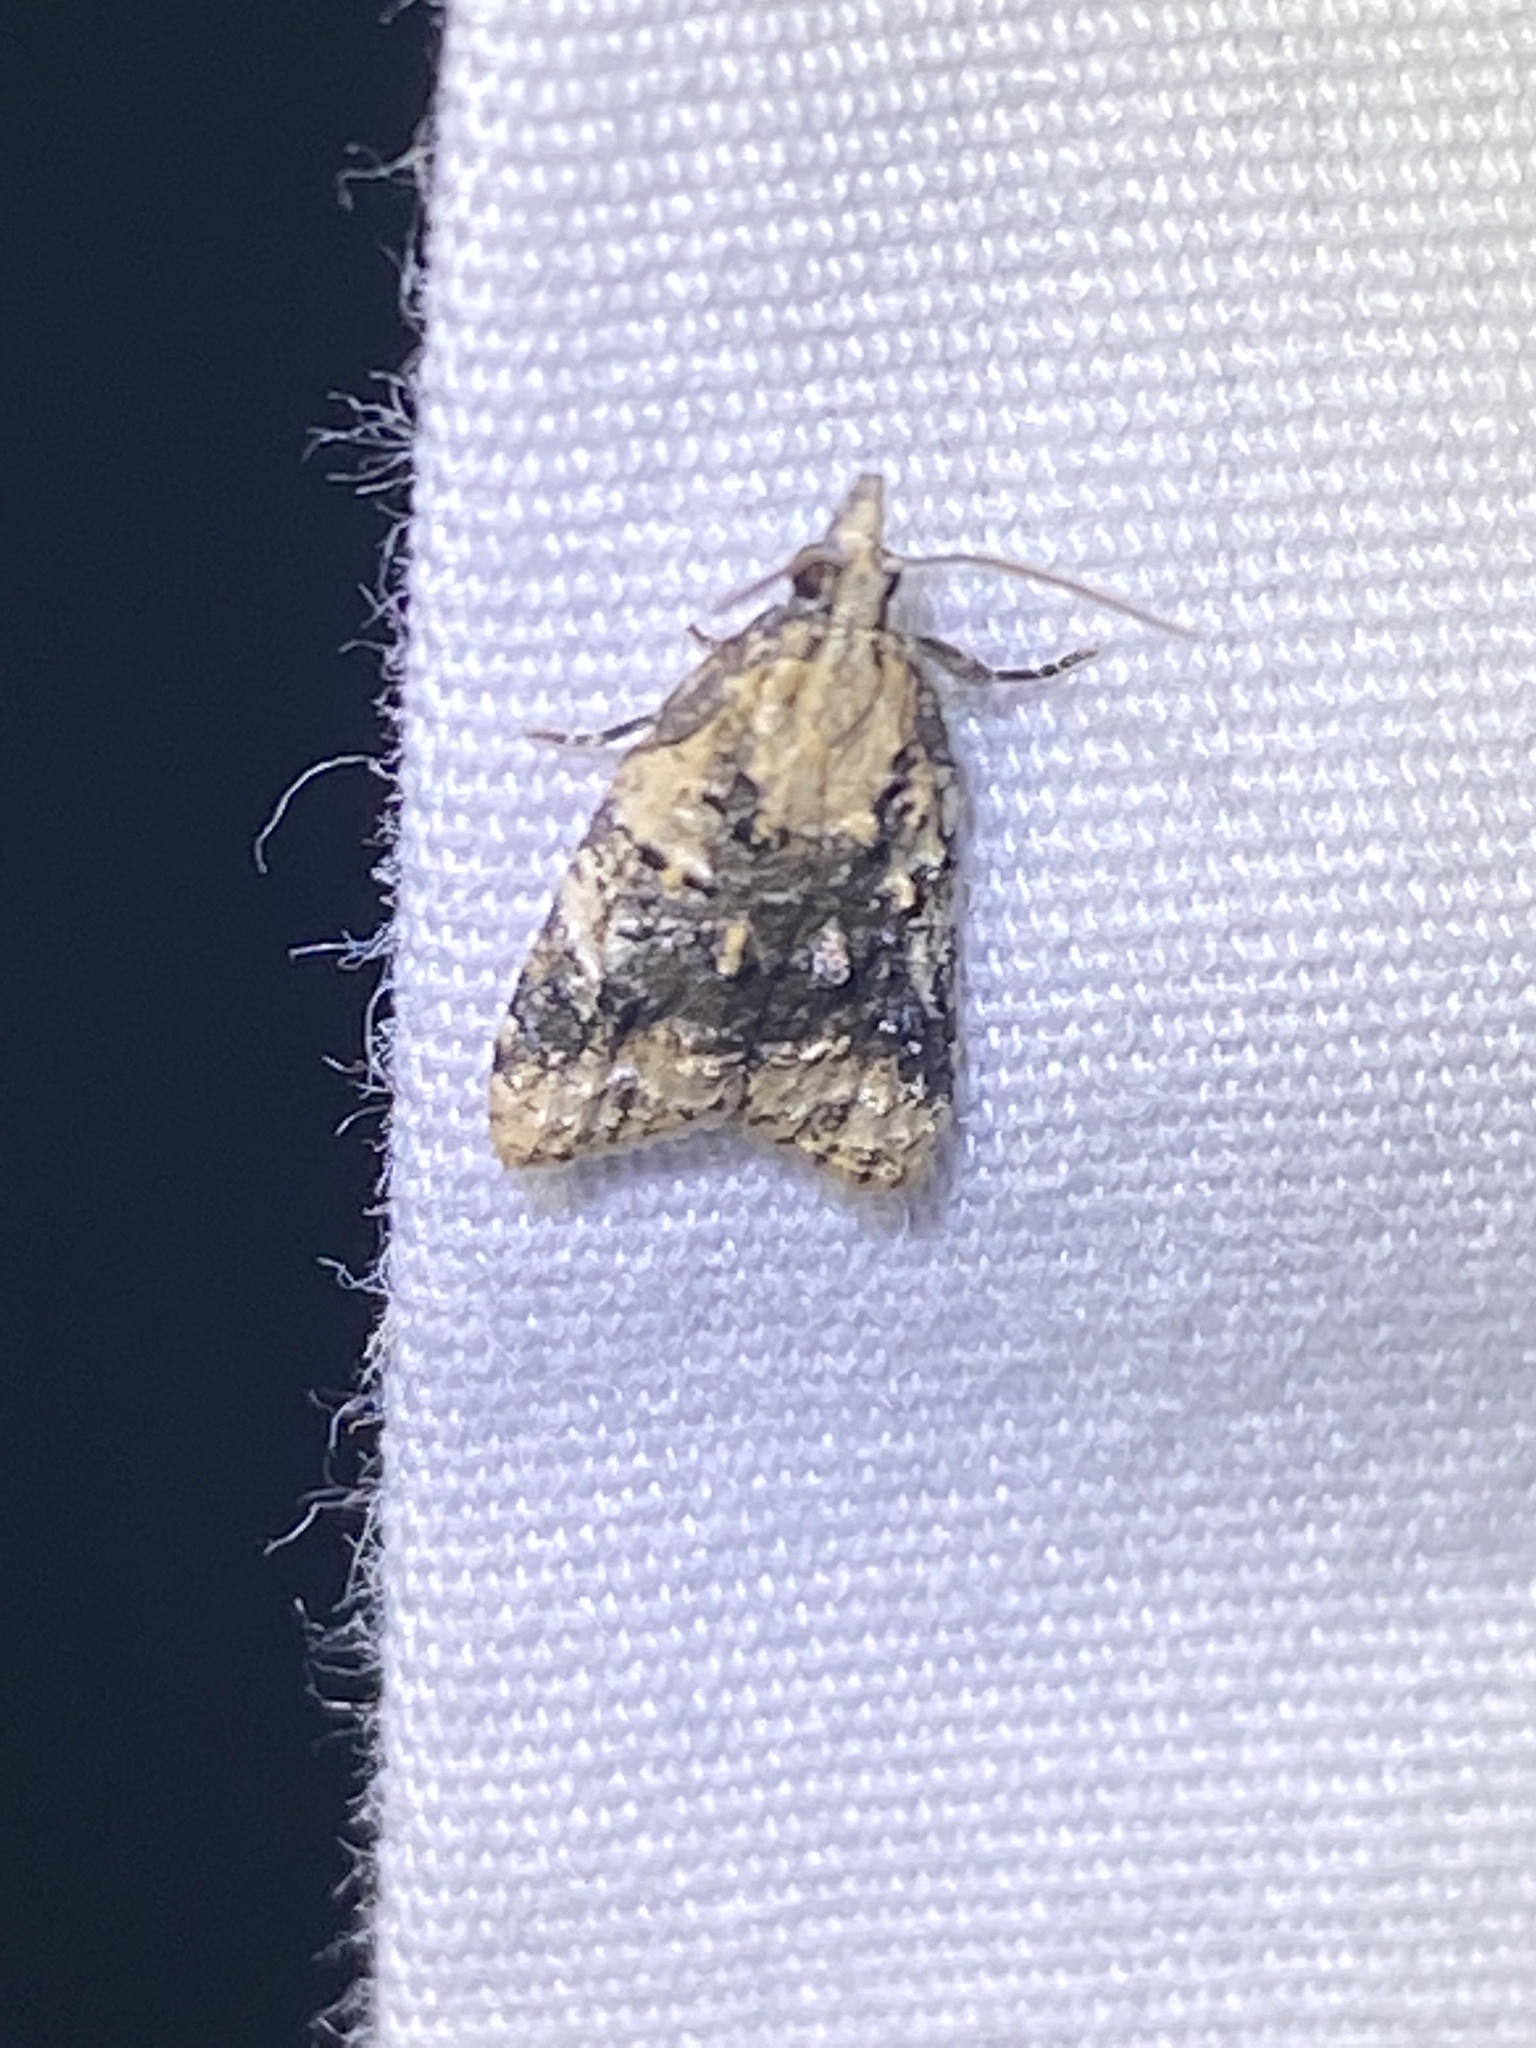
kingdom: Animalia
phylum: Arthropoda
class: Insecta
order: Lepidoptera
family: Tortricidae
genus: Platynota
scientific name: Platynota exasperatana
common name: Exasperating platynota moth
